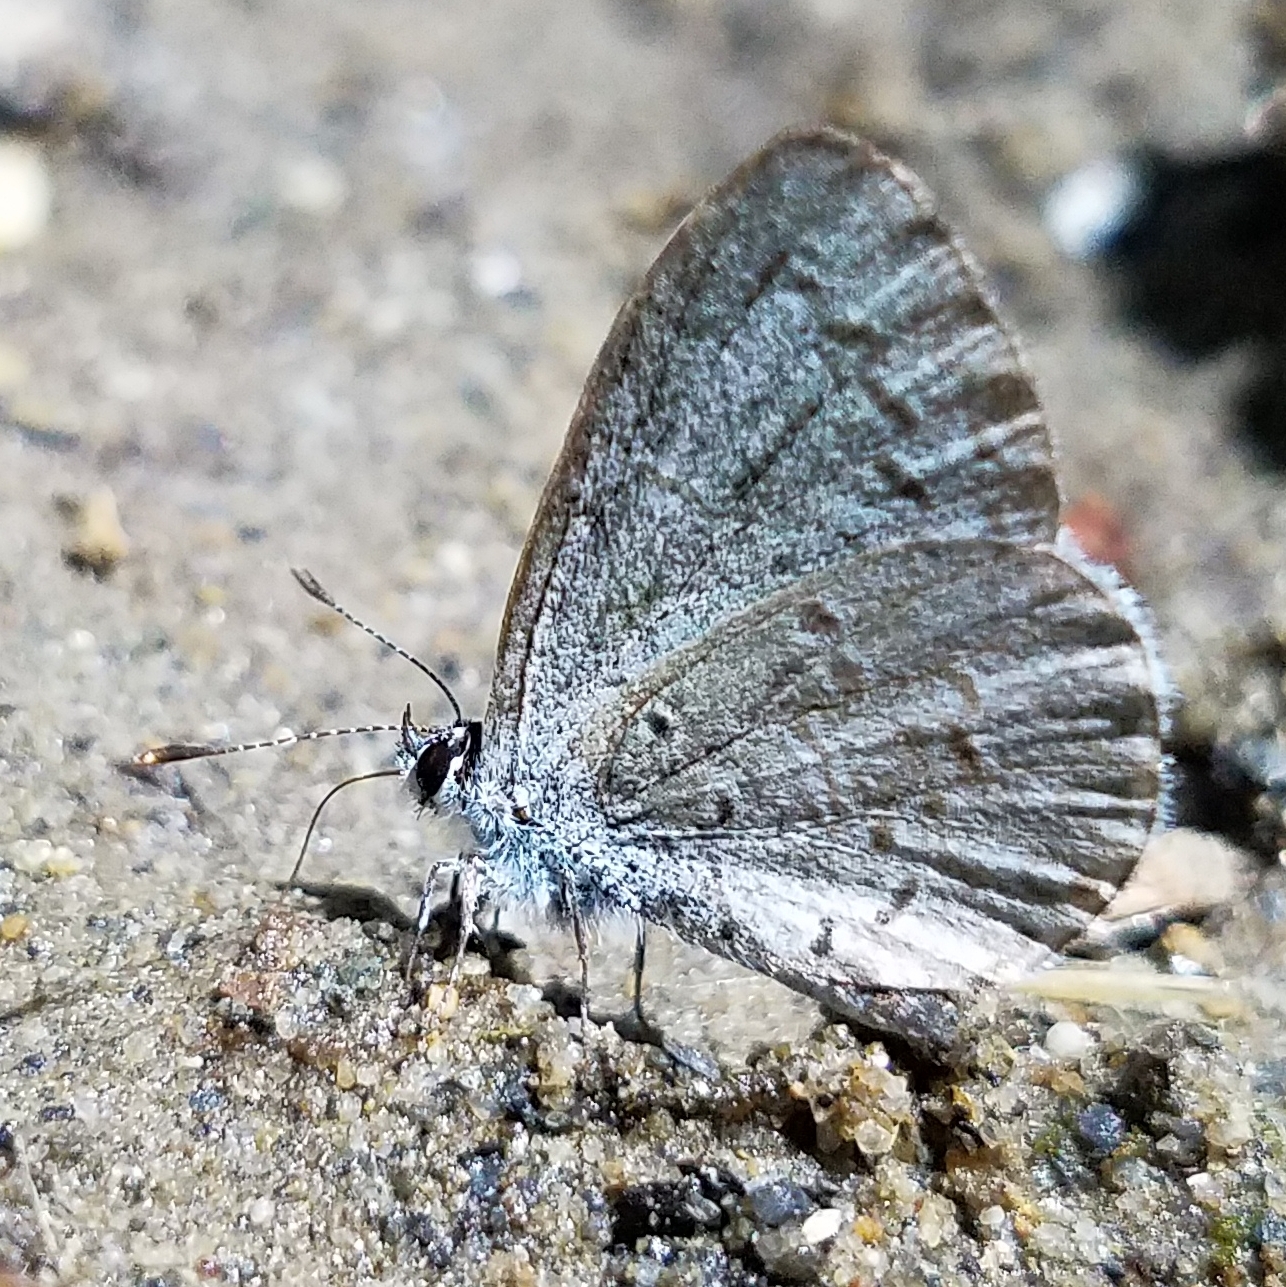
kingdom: Animalia
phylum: Arthropoda
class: Insecta
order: Lepidoptera
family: Lycaenidae
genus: Celastrina
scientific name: Celastrina ladon
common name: Spring azure
